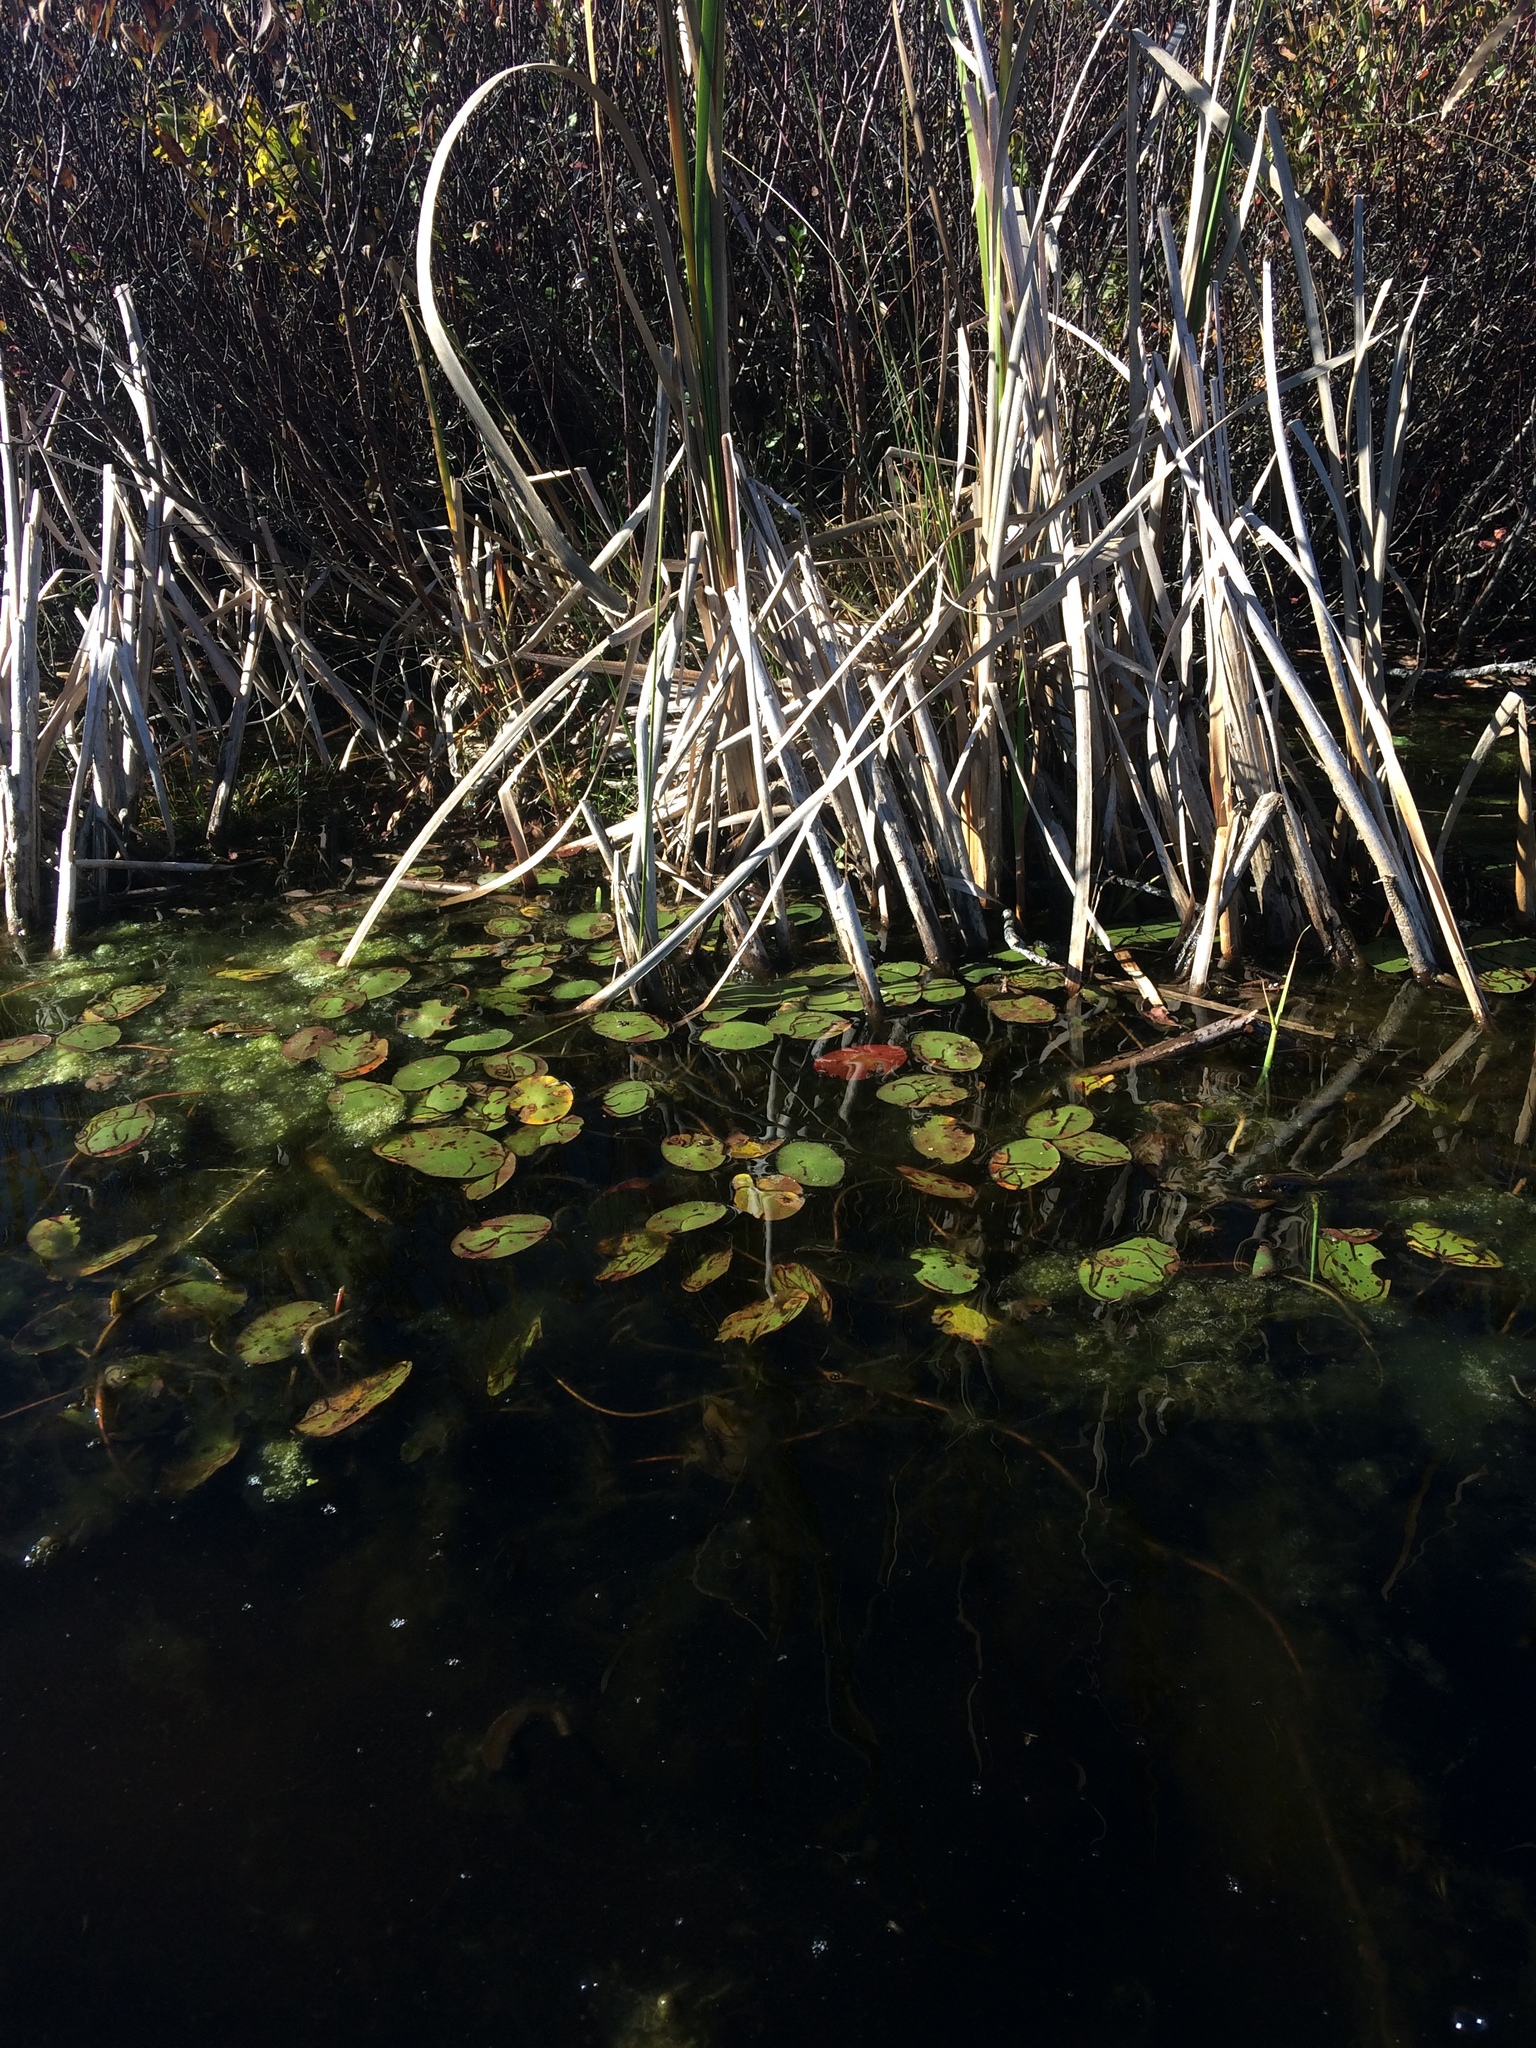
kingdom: Plantae
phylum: Tracheophyta
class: Magnoliopsida
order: Nymphaeales
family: Cabombaceae
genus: Brasenia
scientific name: Brasenia schreberi
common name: Water-shield
